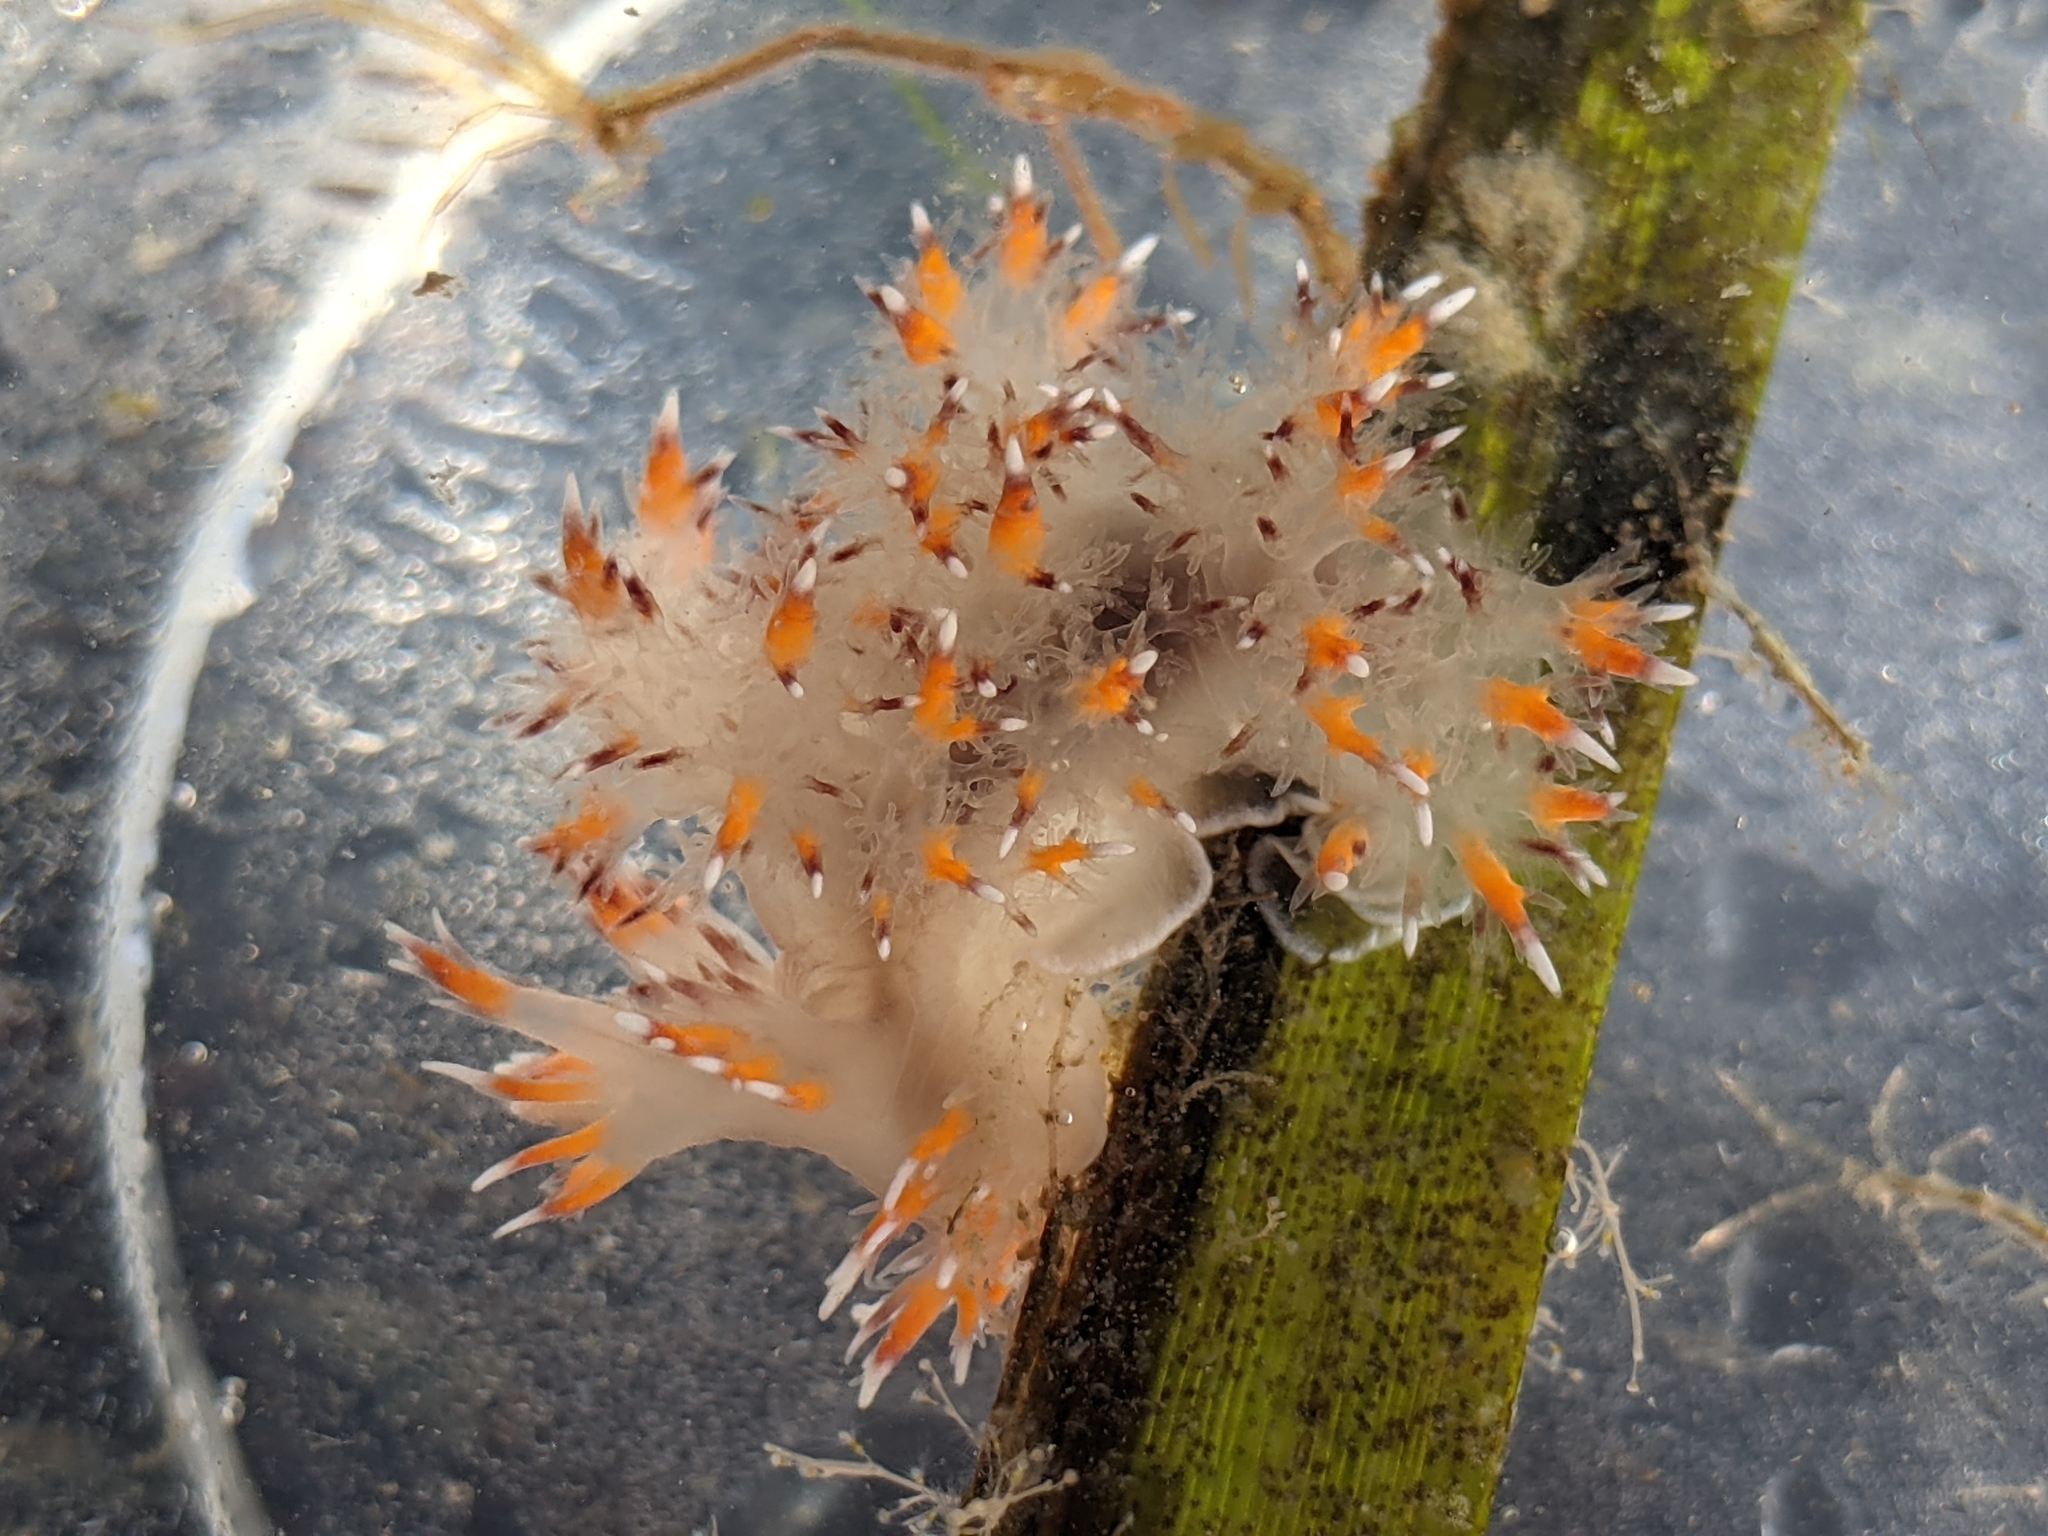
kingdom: Animalia
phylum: Mollusca
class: Gastropoda
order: Nudibranchia
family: Dendronotidae
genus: Dendronotus
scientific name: Dendronotus iris
